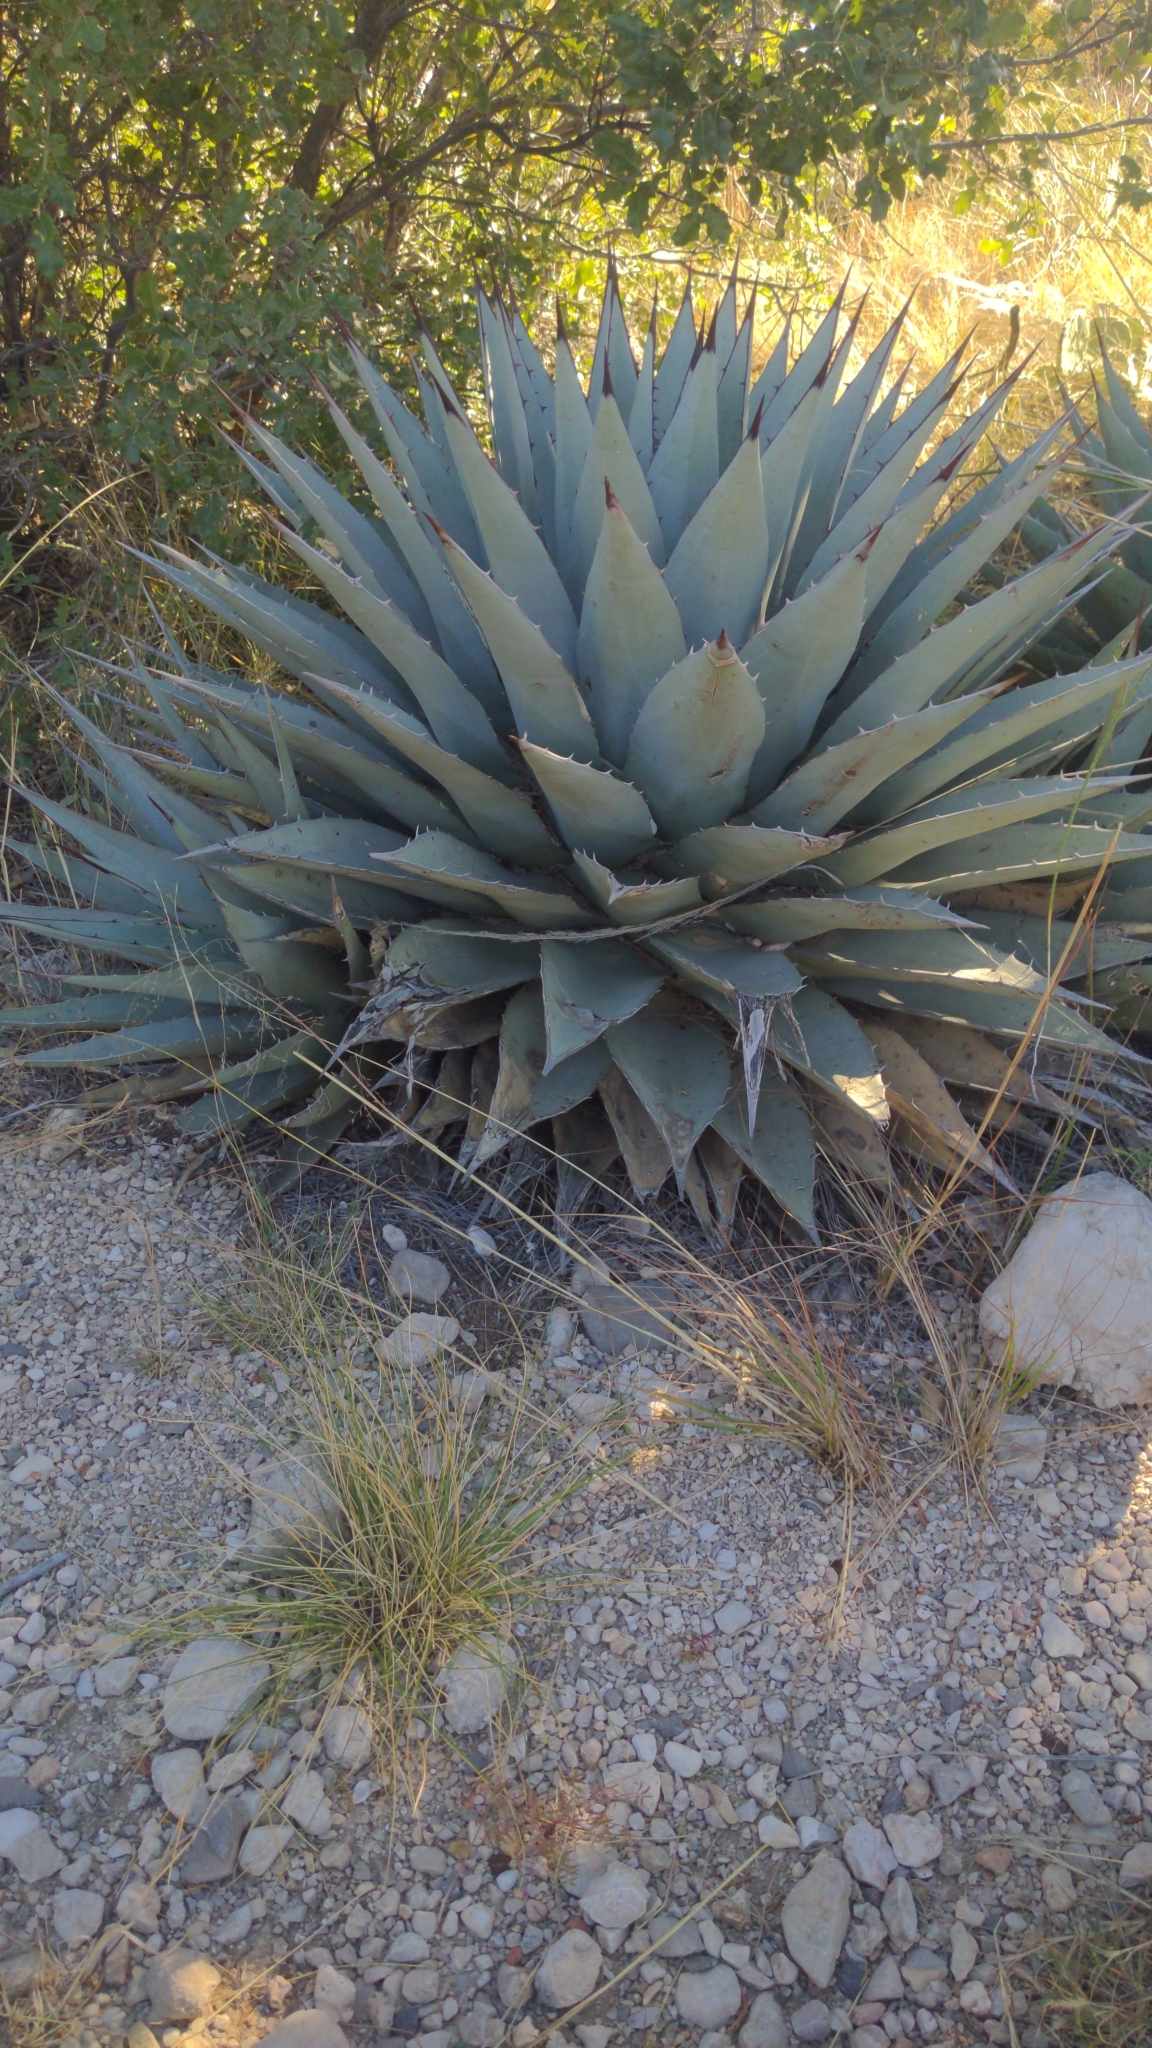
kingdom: Plantae
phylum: Tracheophyta
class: Liliopsida
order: Asparagales
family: Asparagaceae
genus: Agave
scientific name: Agave parryi
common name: Parry's agave
